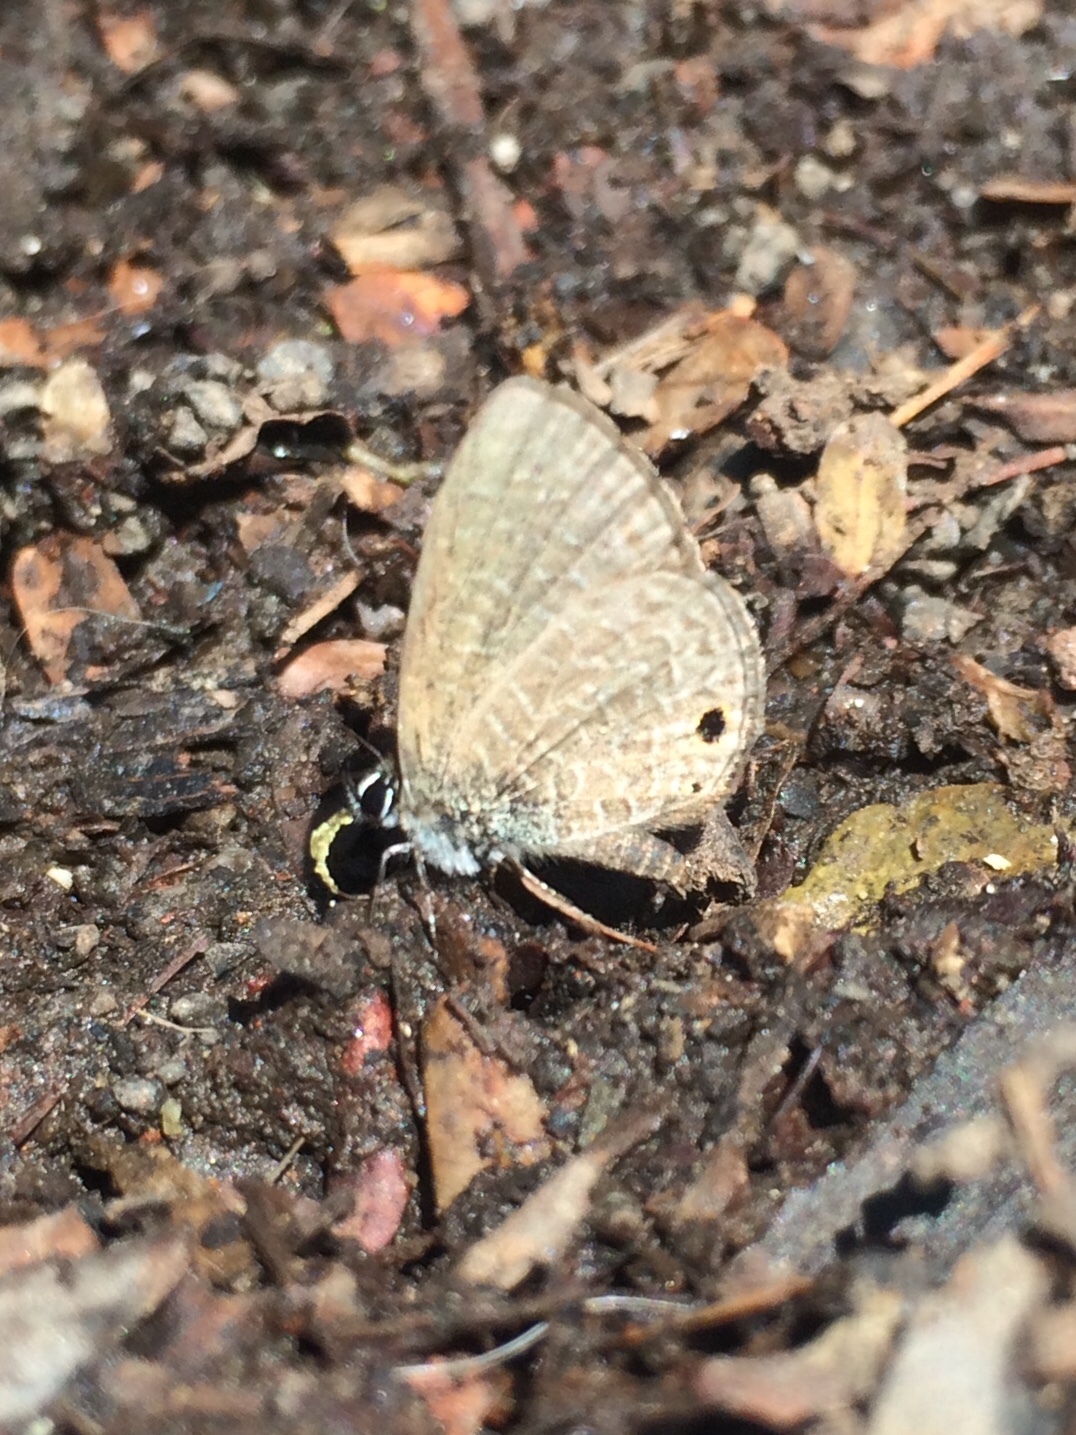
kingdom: Animalia
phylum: Arthropoda
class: Insecta
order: Lepidoptera
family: Lycaenidae
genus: Prosotas
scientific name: Prosotas dubiosa
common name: Tailless lineblue
